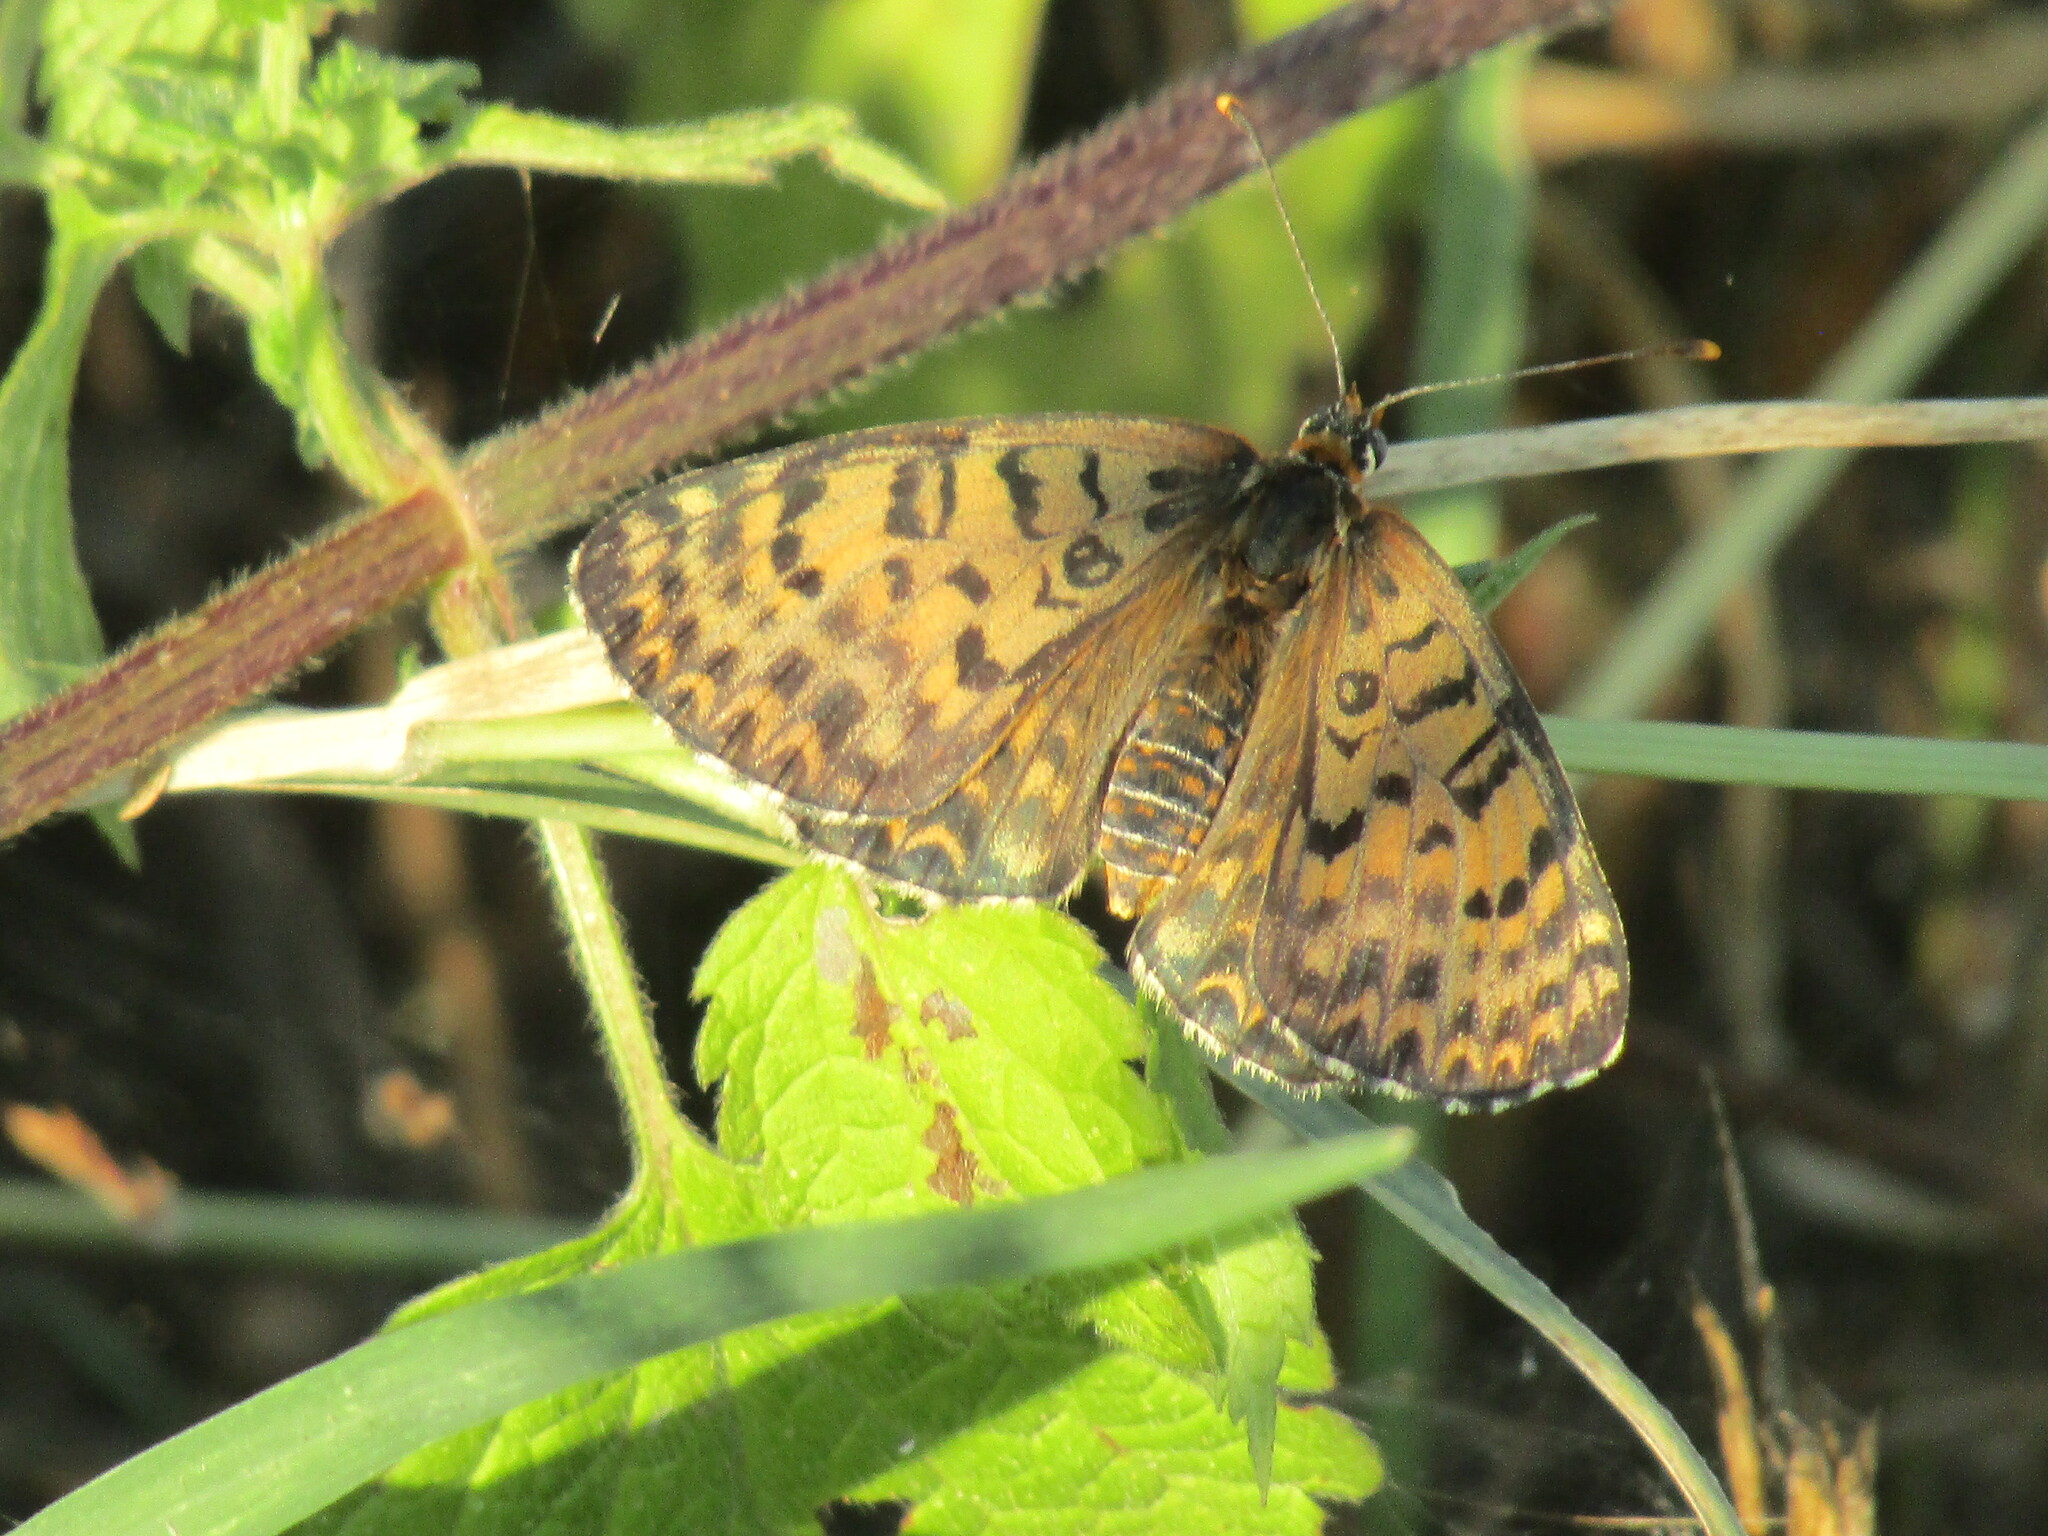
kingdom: Animalia
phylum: Arthropoda
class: Insecta
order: Lepidoptera
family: Nymphalidae
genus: Melitaea
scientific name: Melitaea didyma
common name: Spotted fritillary
